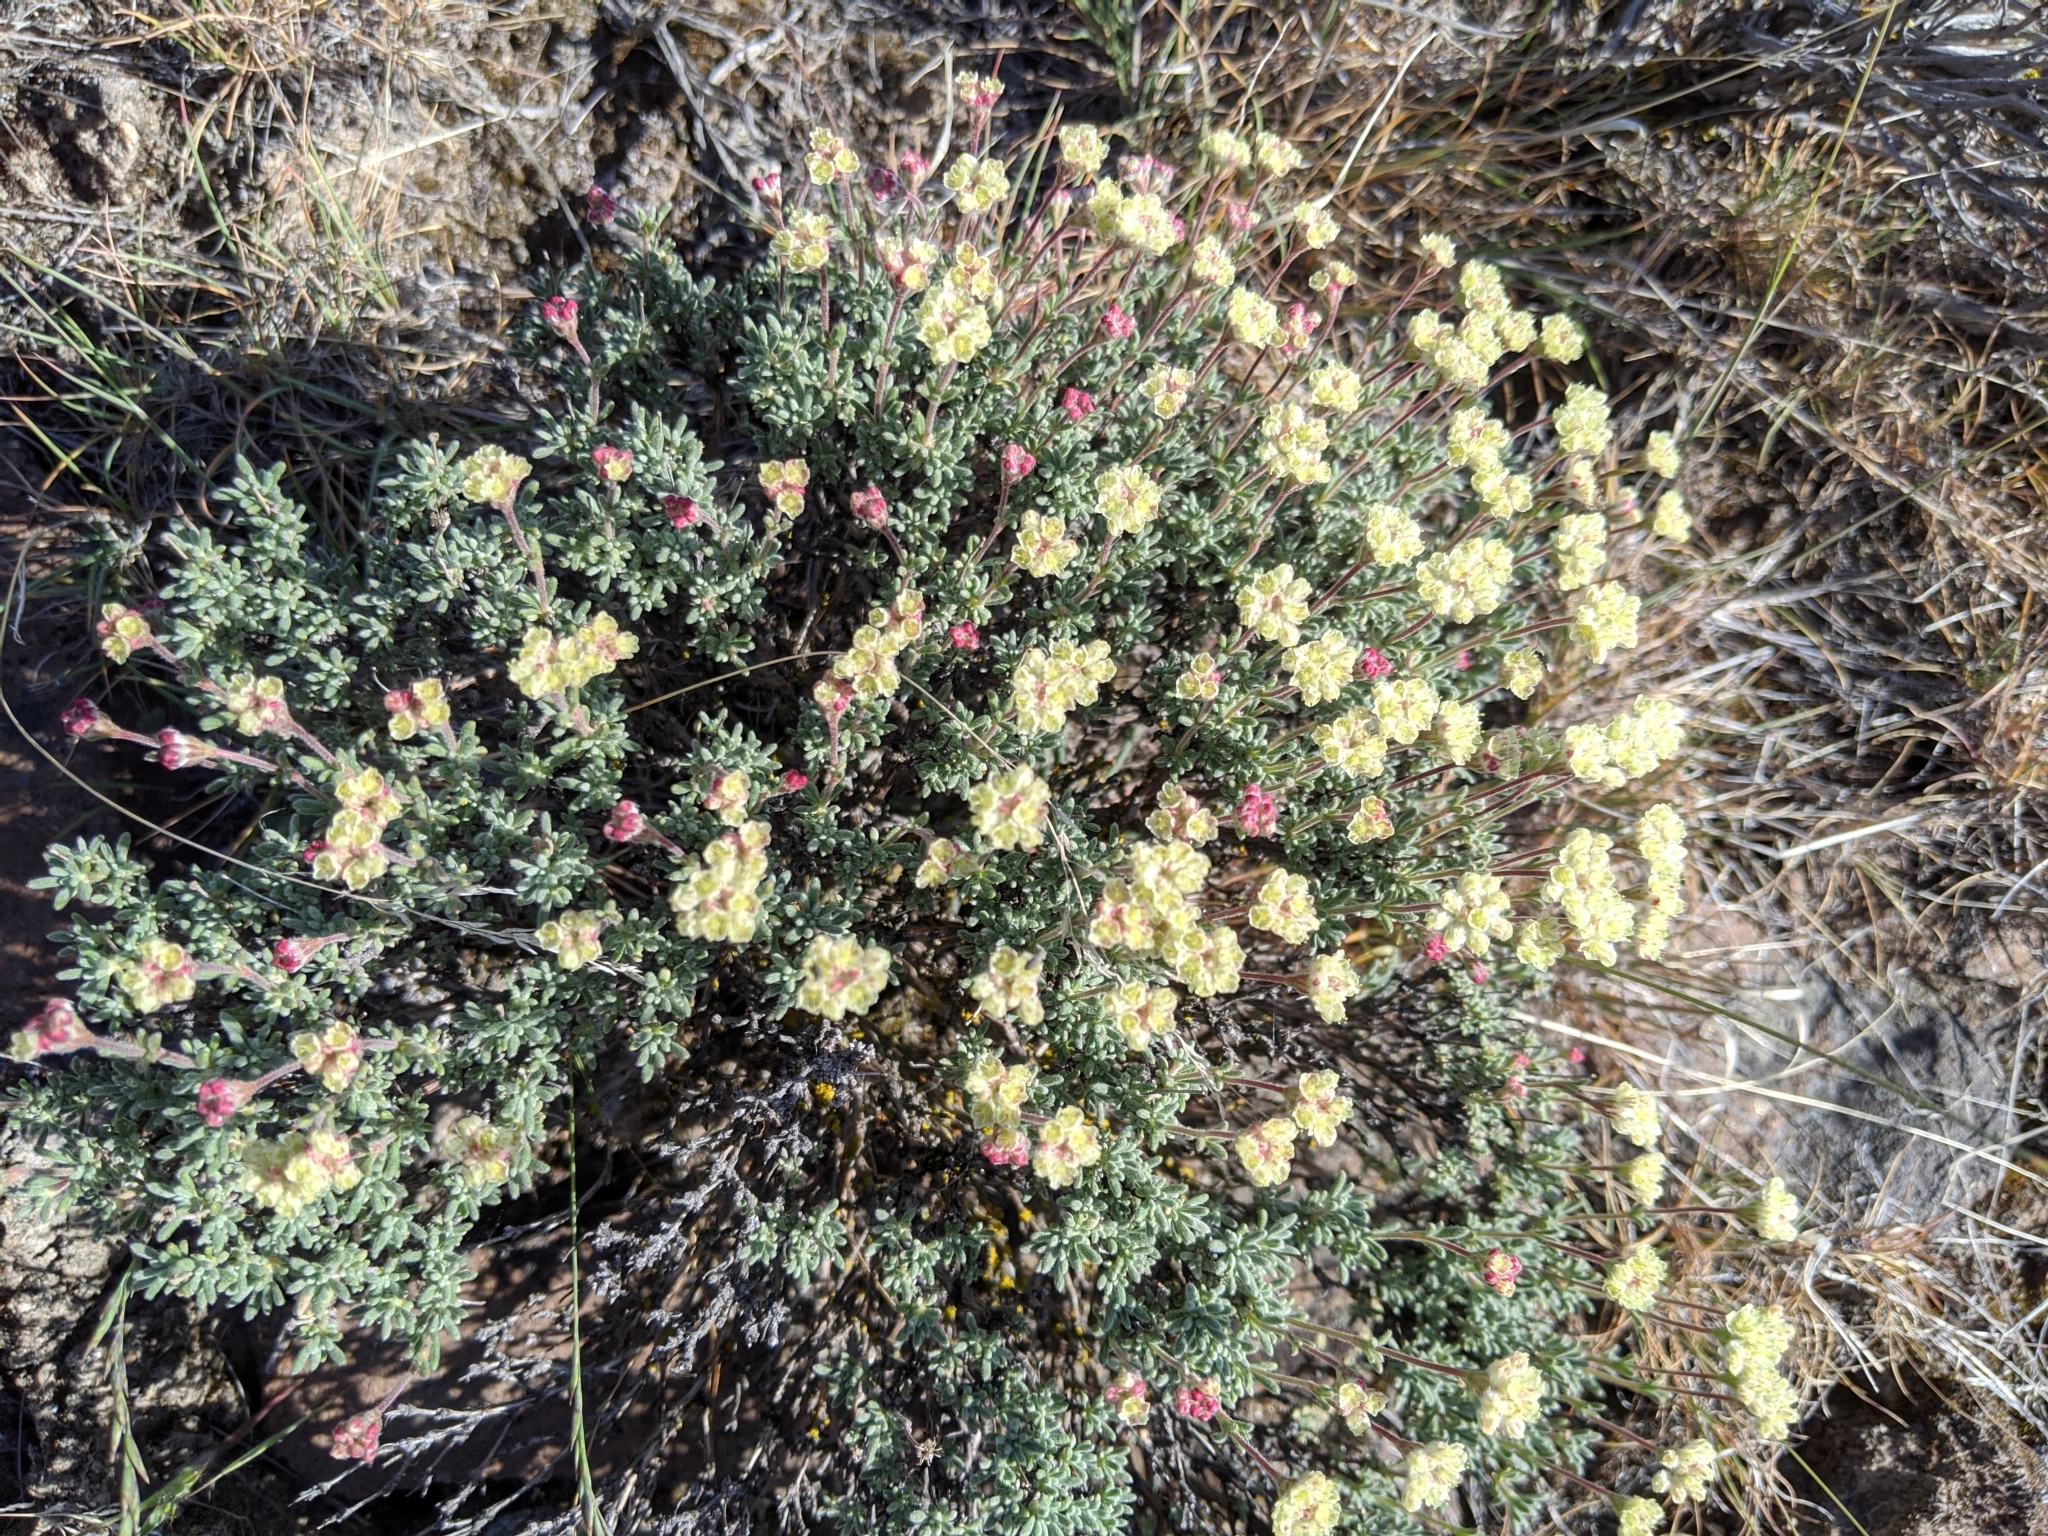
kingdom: Plantae
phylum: Tracheophyta
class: Magnoliopsida
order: Caryophyllales
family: Polygonaceae
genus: Eriogonum
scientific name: Eriogonum thymoides
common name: Thyme-leaf wild buckwheat
